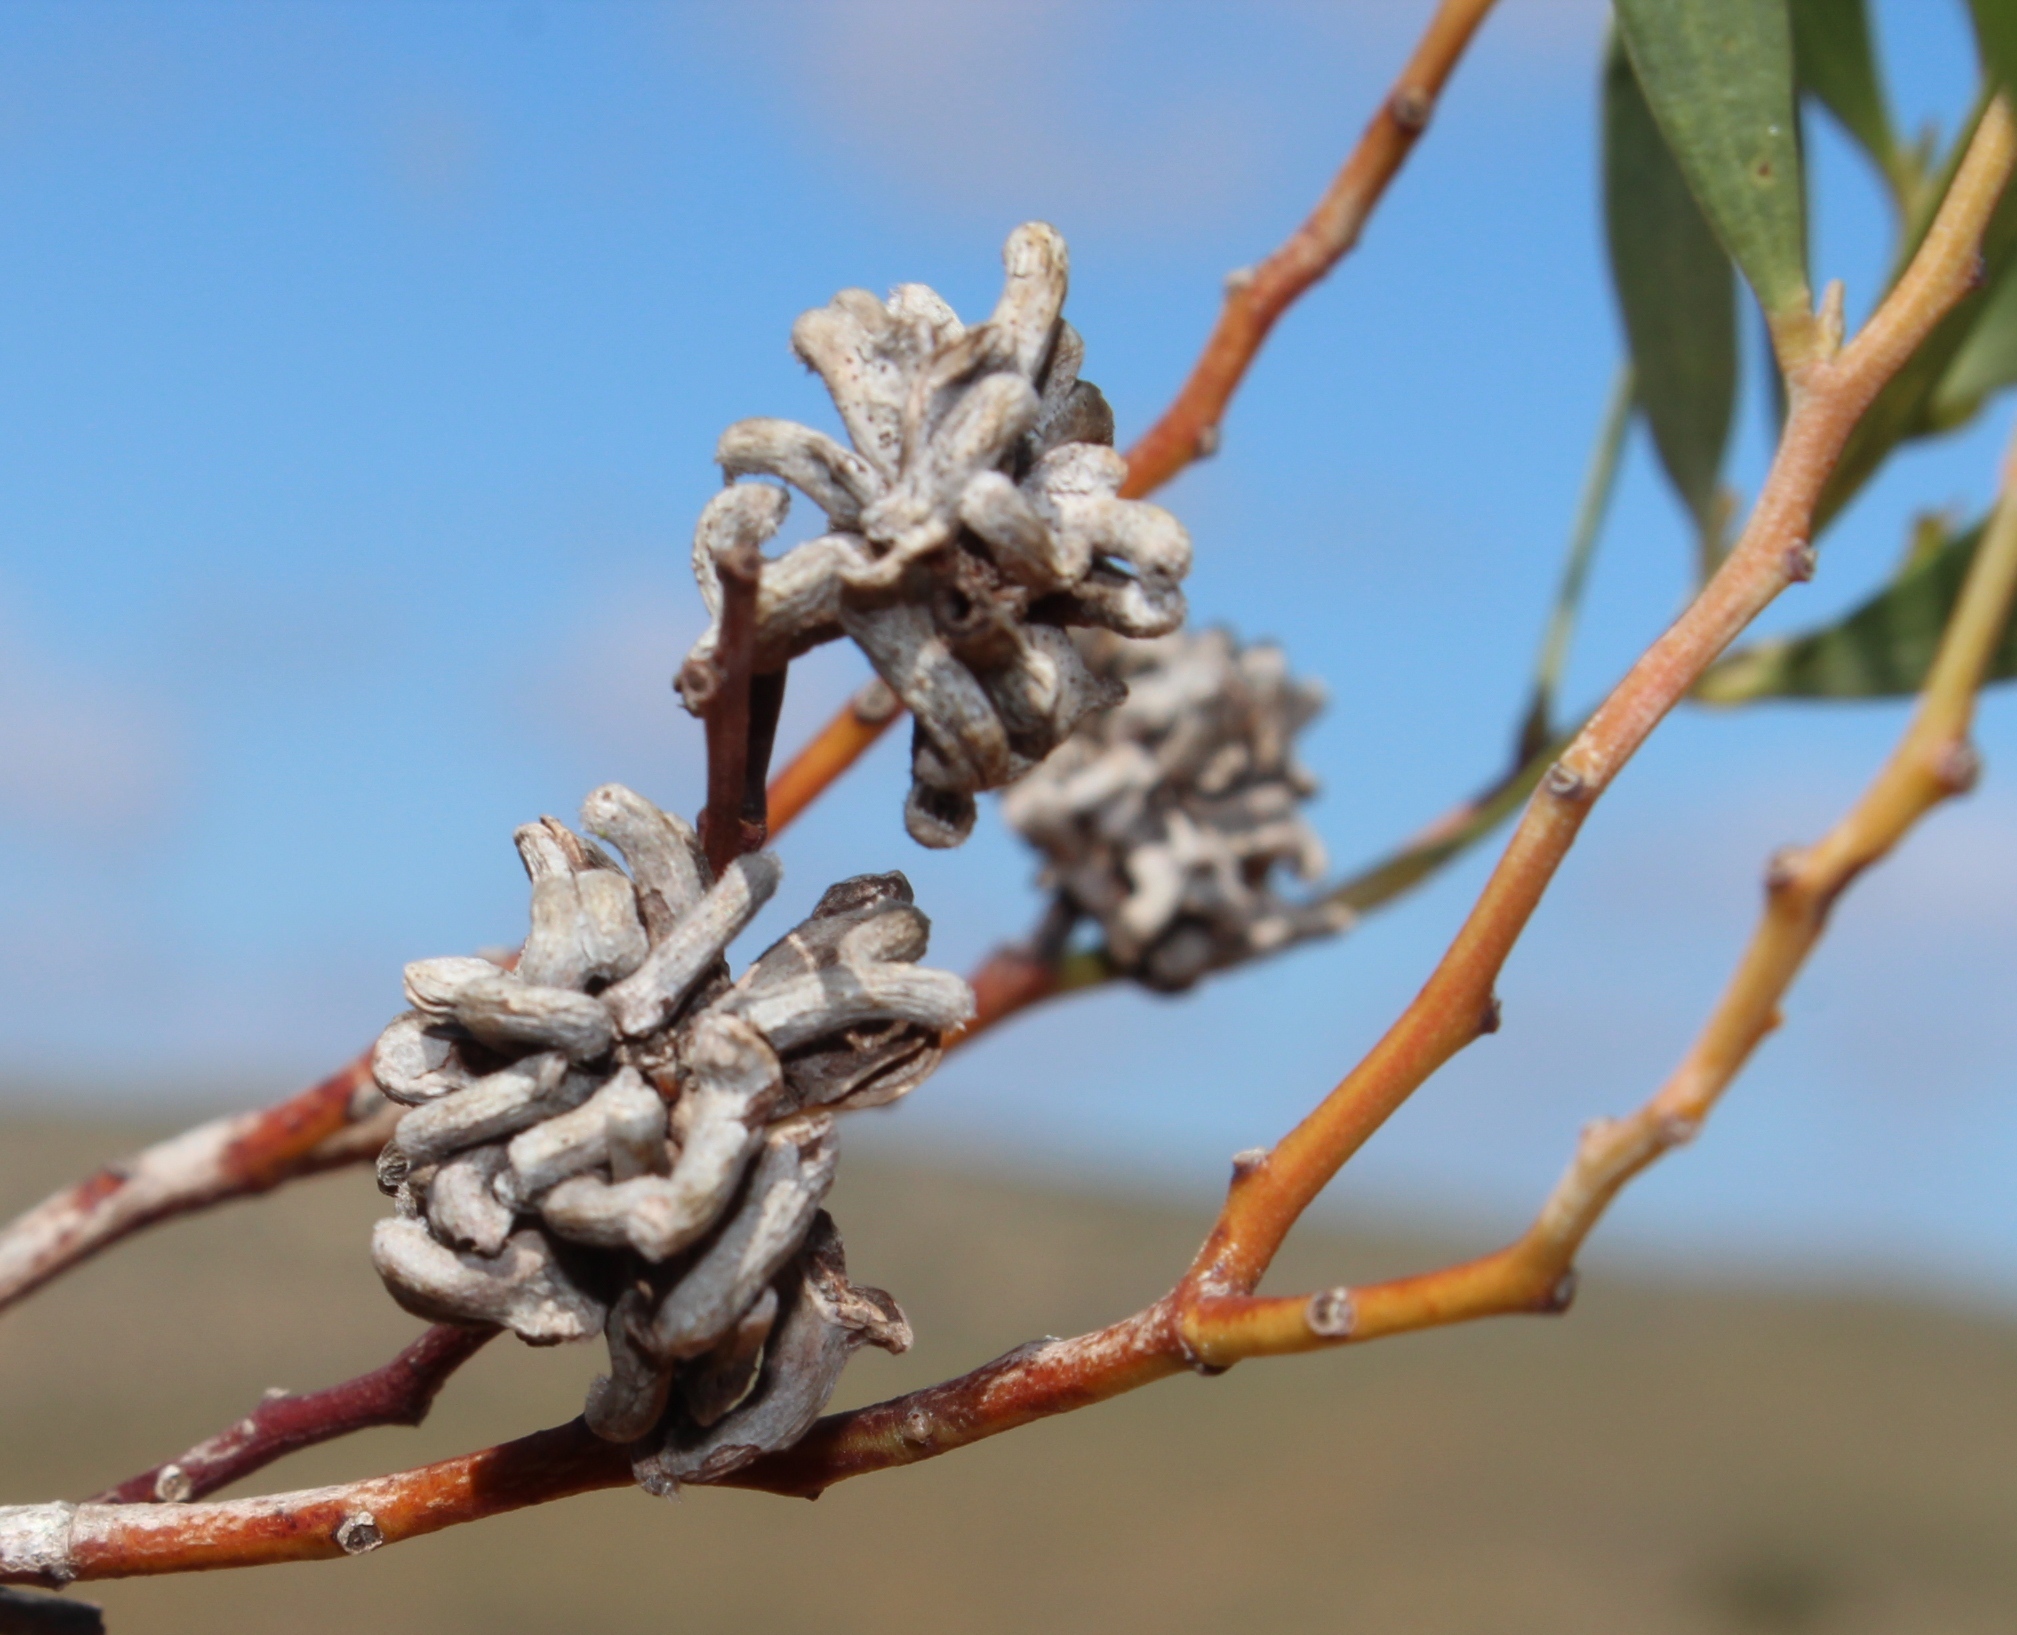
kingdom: Animalia
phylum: Arthropoda
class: Insecta
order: Diptera
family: Cecidomyiidae
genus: Dasineura
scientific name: Dasineura dielsi
